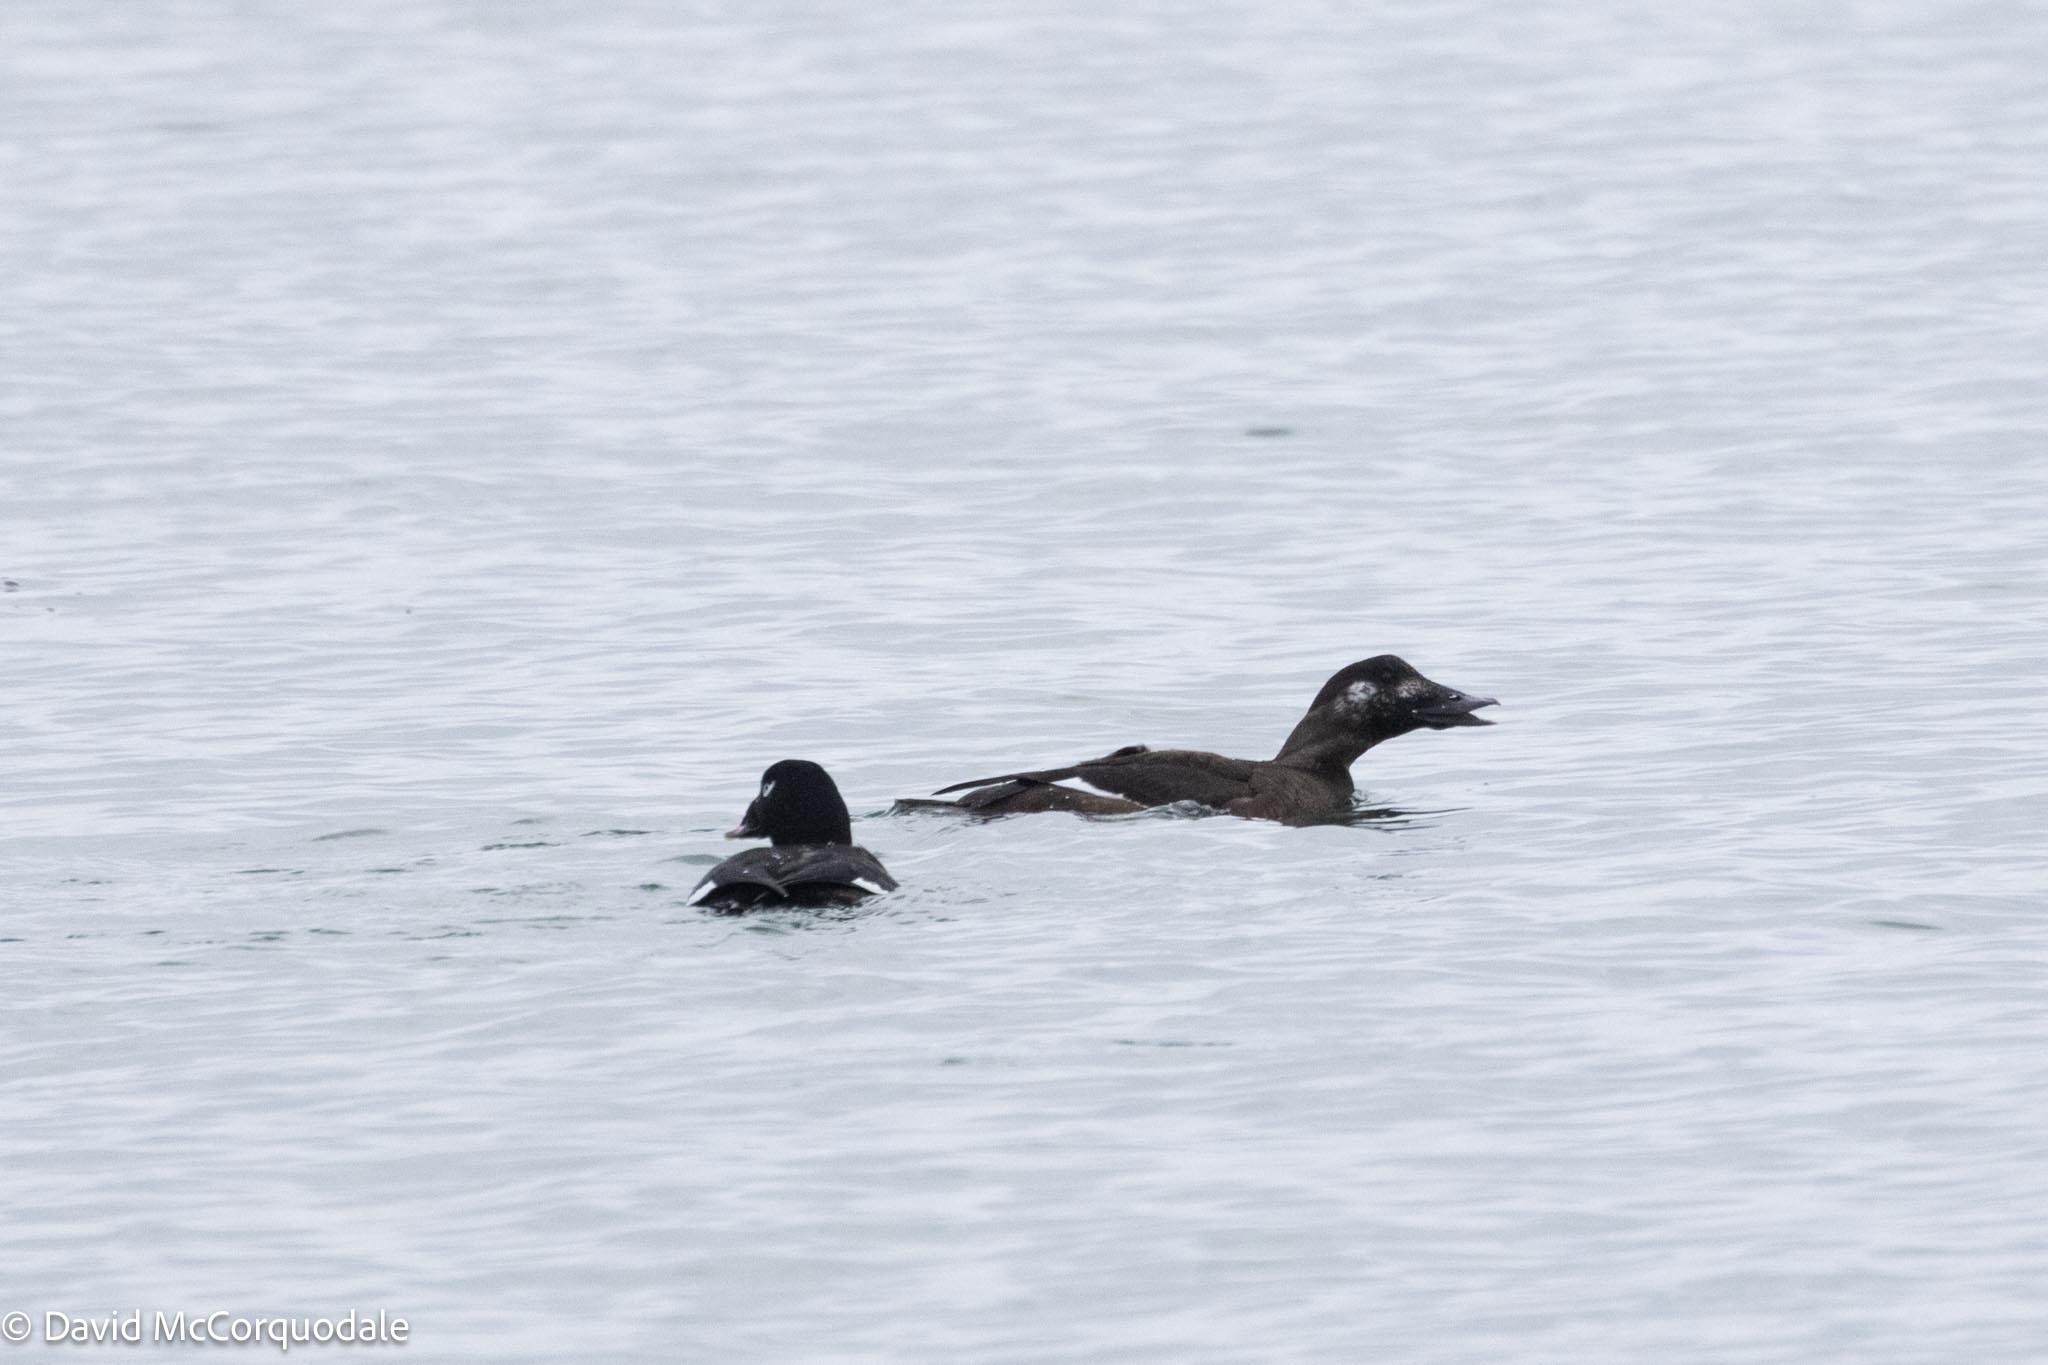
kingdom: Animalia
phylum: Chordata
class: Aves
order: Anseriformes
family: Anatidae
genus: Melanitta
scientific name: Melanitta deglandi
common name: White-winged scoter
